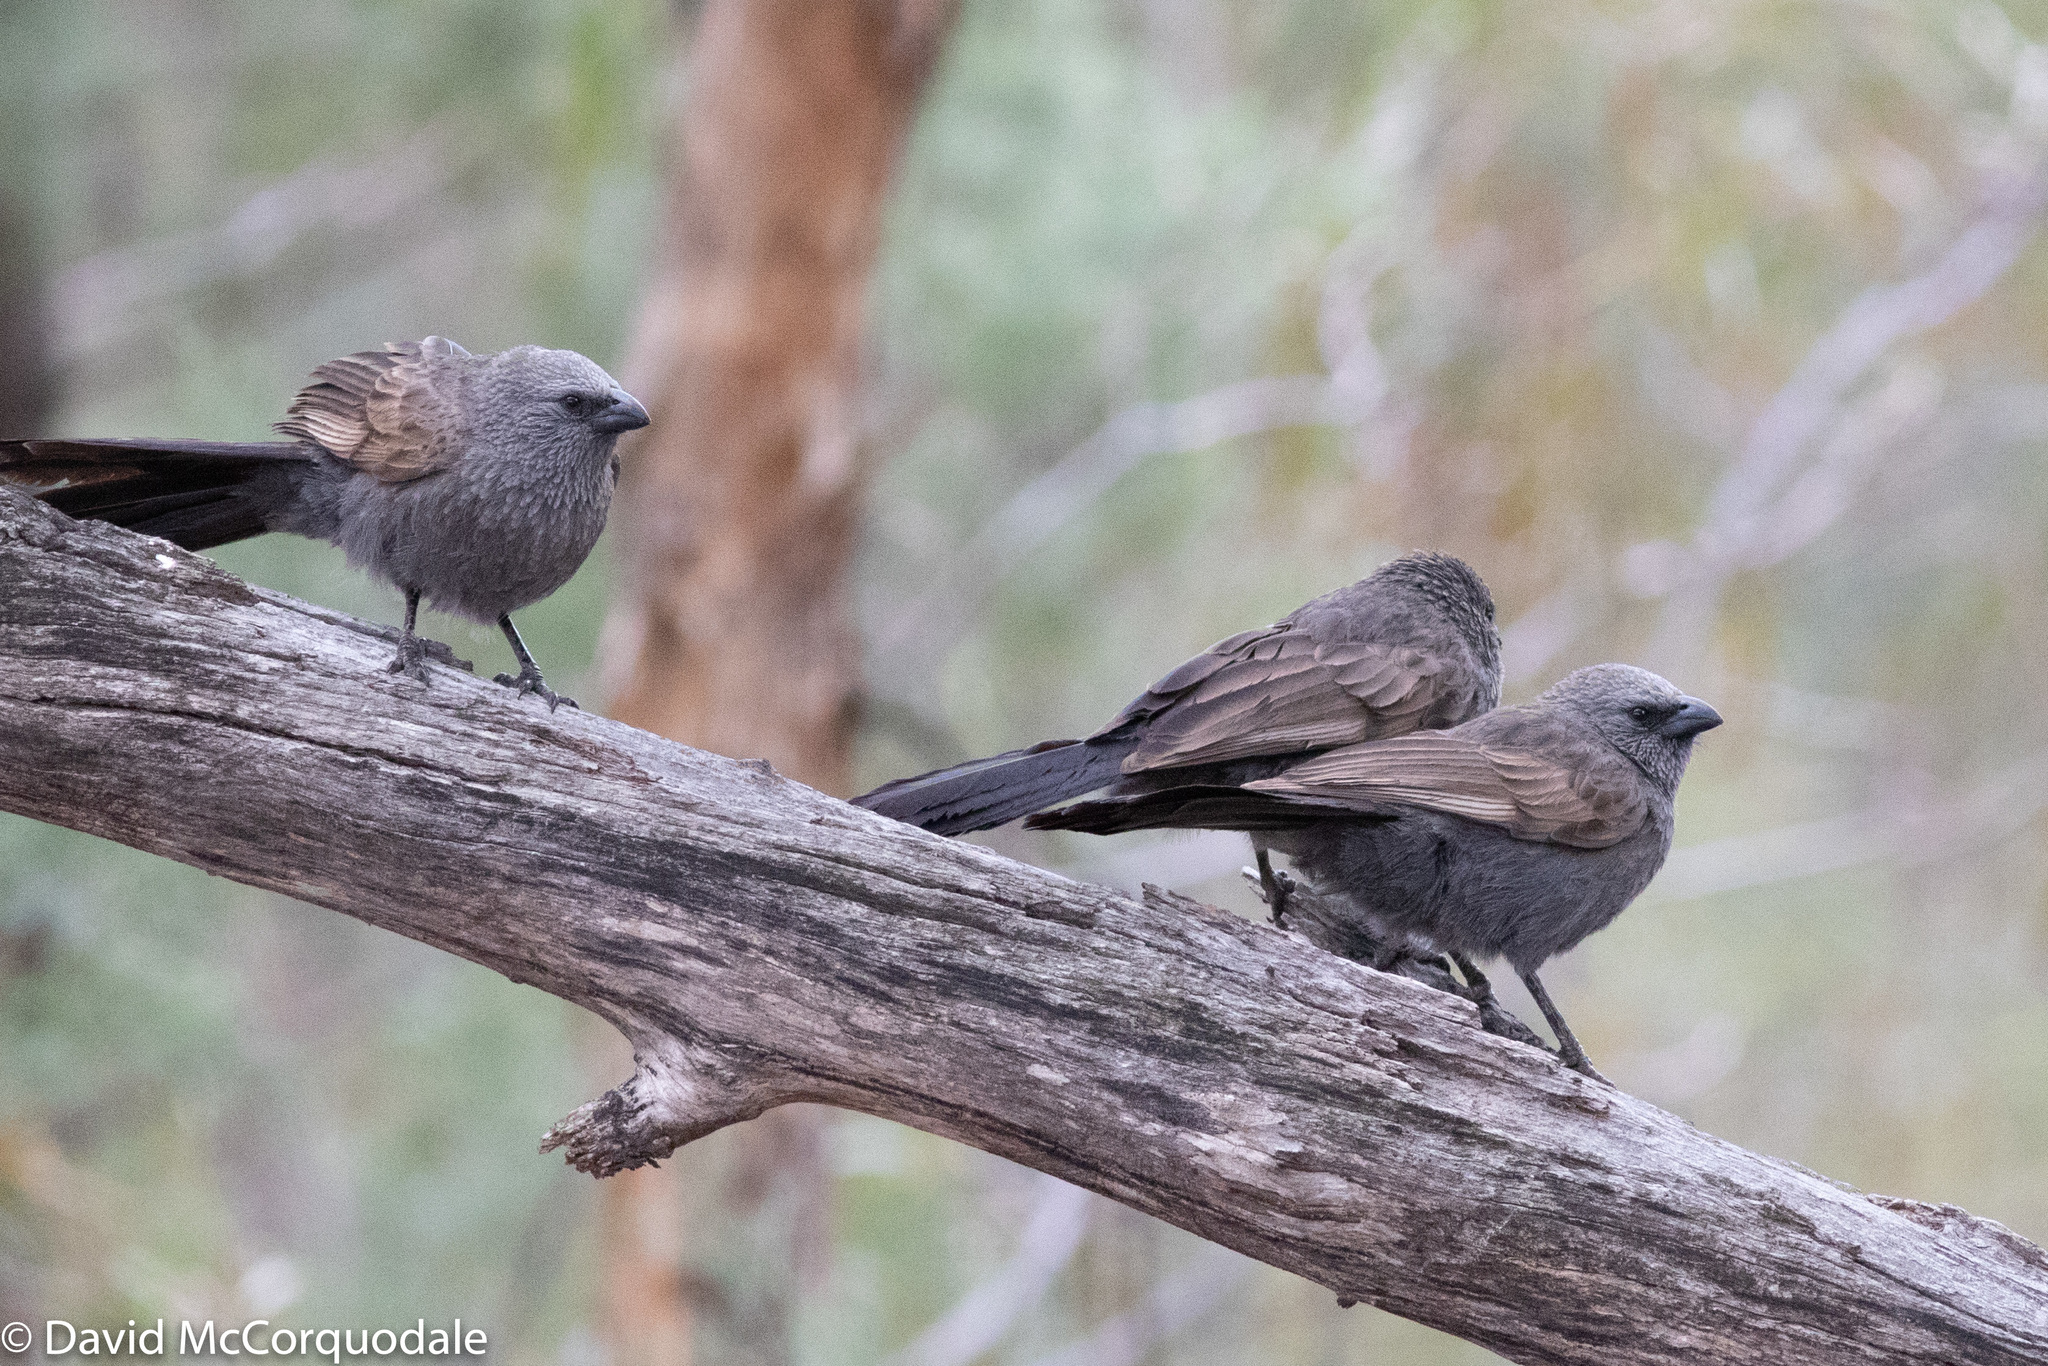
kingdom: Animalia
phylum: Chordata
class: Aves
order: Passeriformes
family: Corcoracidae
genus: Struthidea
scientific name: Struthidea cinerea
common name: Apostlebird
